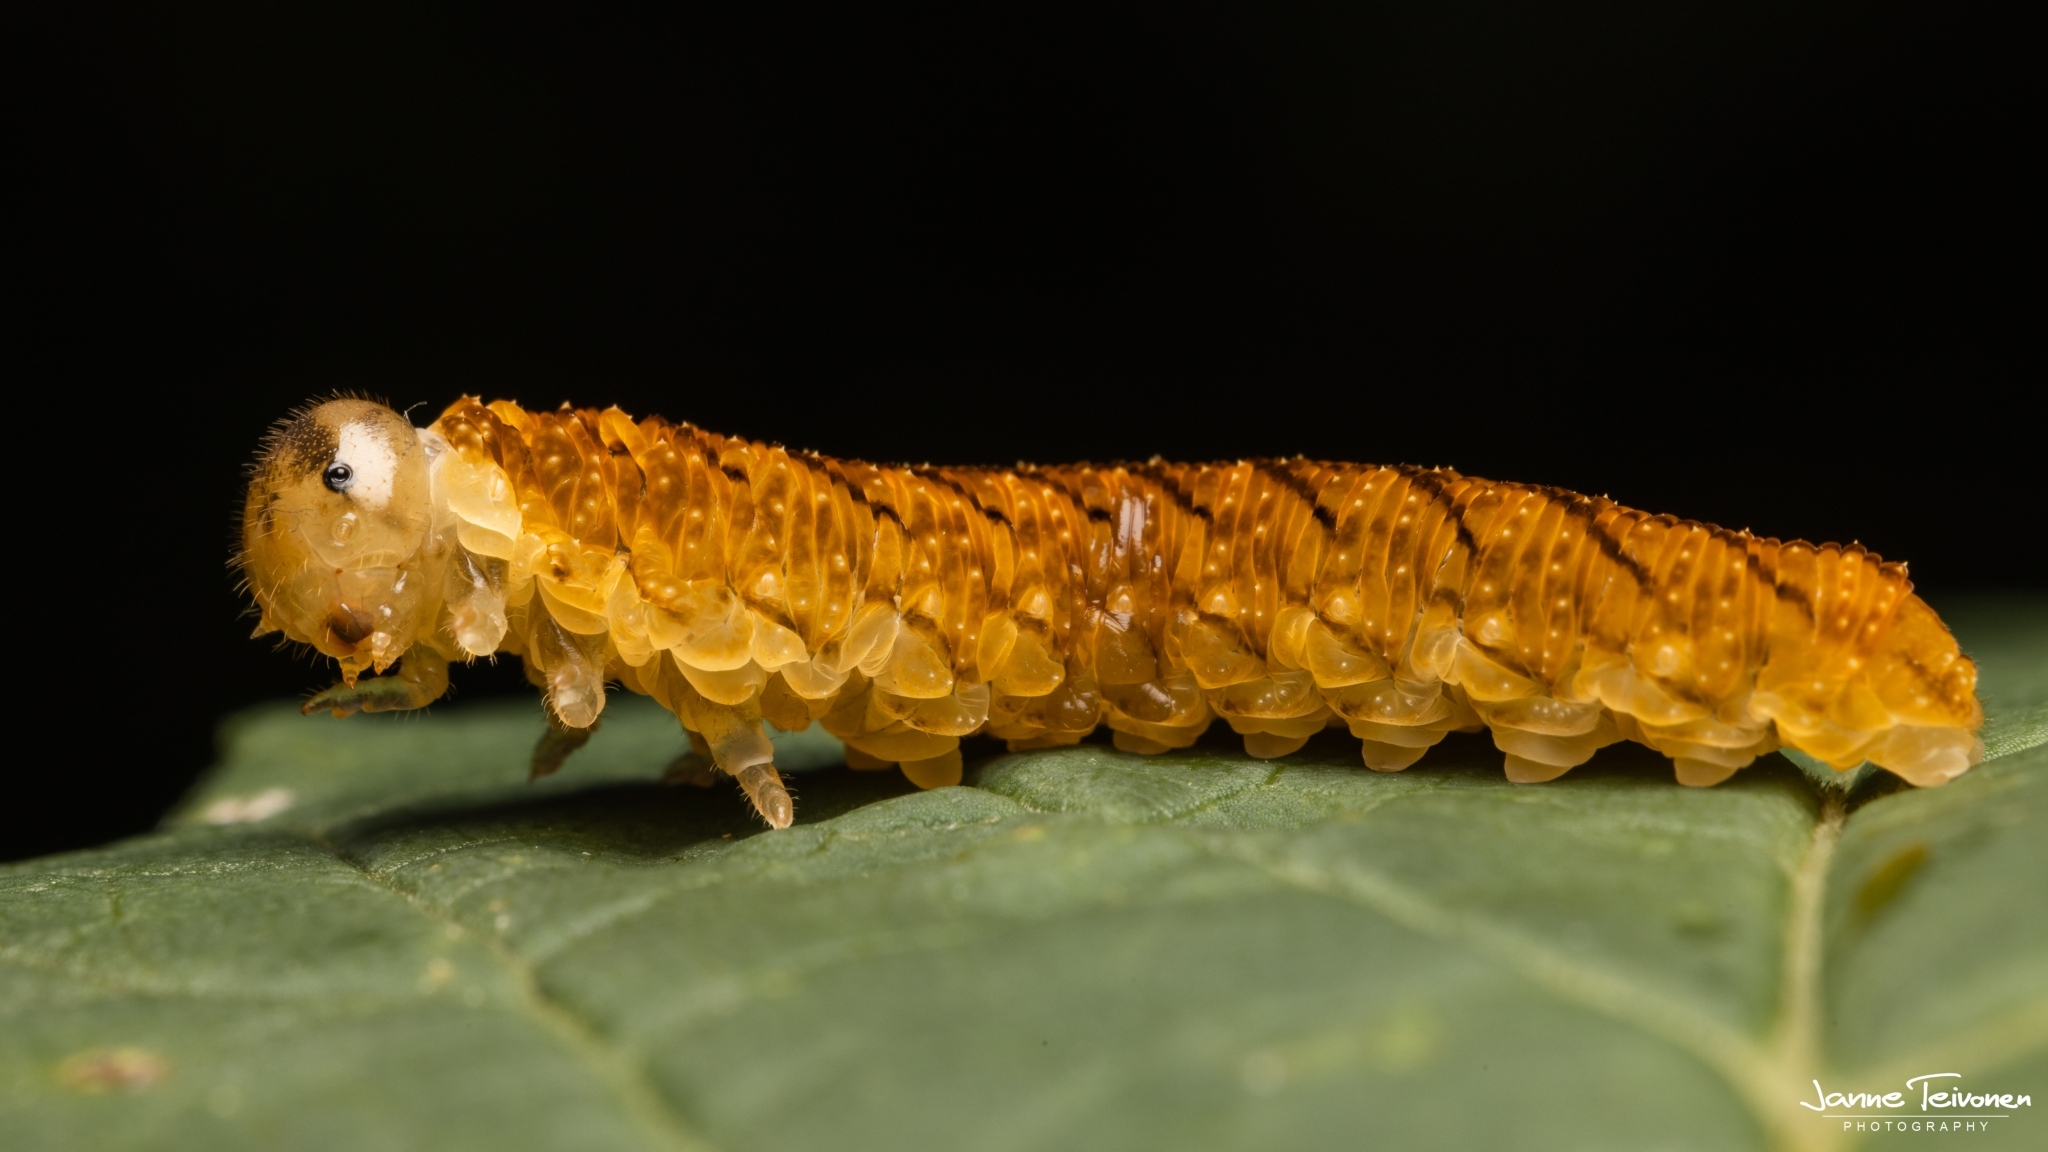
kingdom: Animalia
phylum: Arthropoda
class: Insecta
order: Hymenoptera
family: Tenthredinidae
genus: Tenthredo
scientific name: Tenthredo campestris
